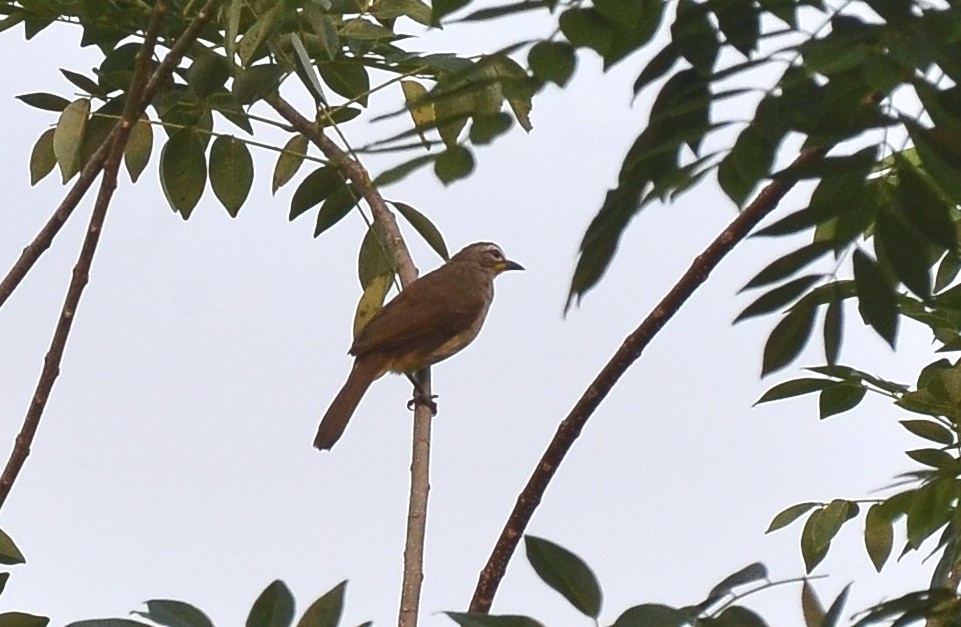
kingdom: Animalia
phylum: Chordata
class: Aves
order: Passeriformes
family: Pycnonotidae
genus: Pycnonotus
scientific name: Pycnonotus luteolus
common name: White-browed bulbul
